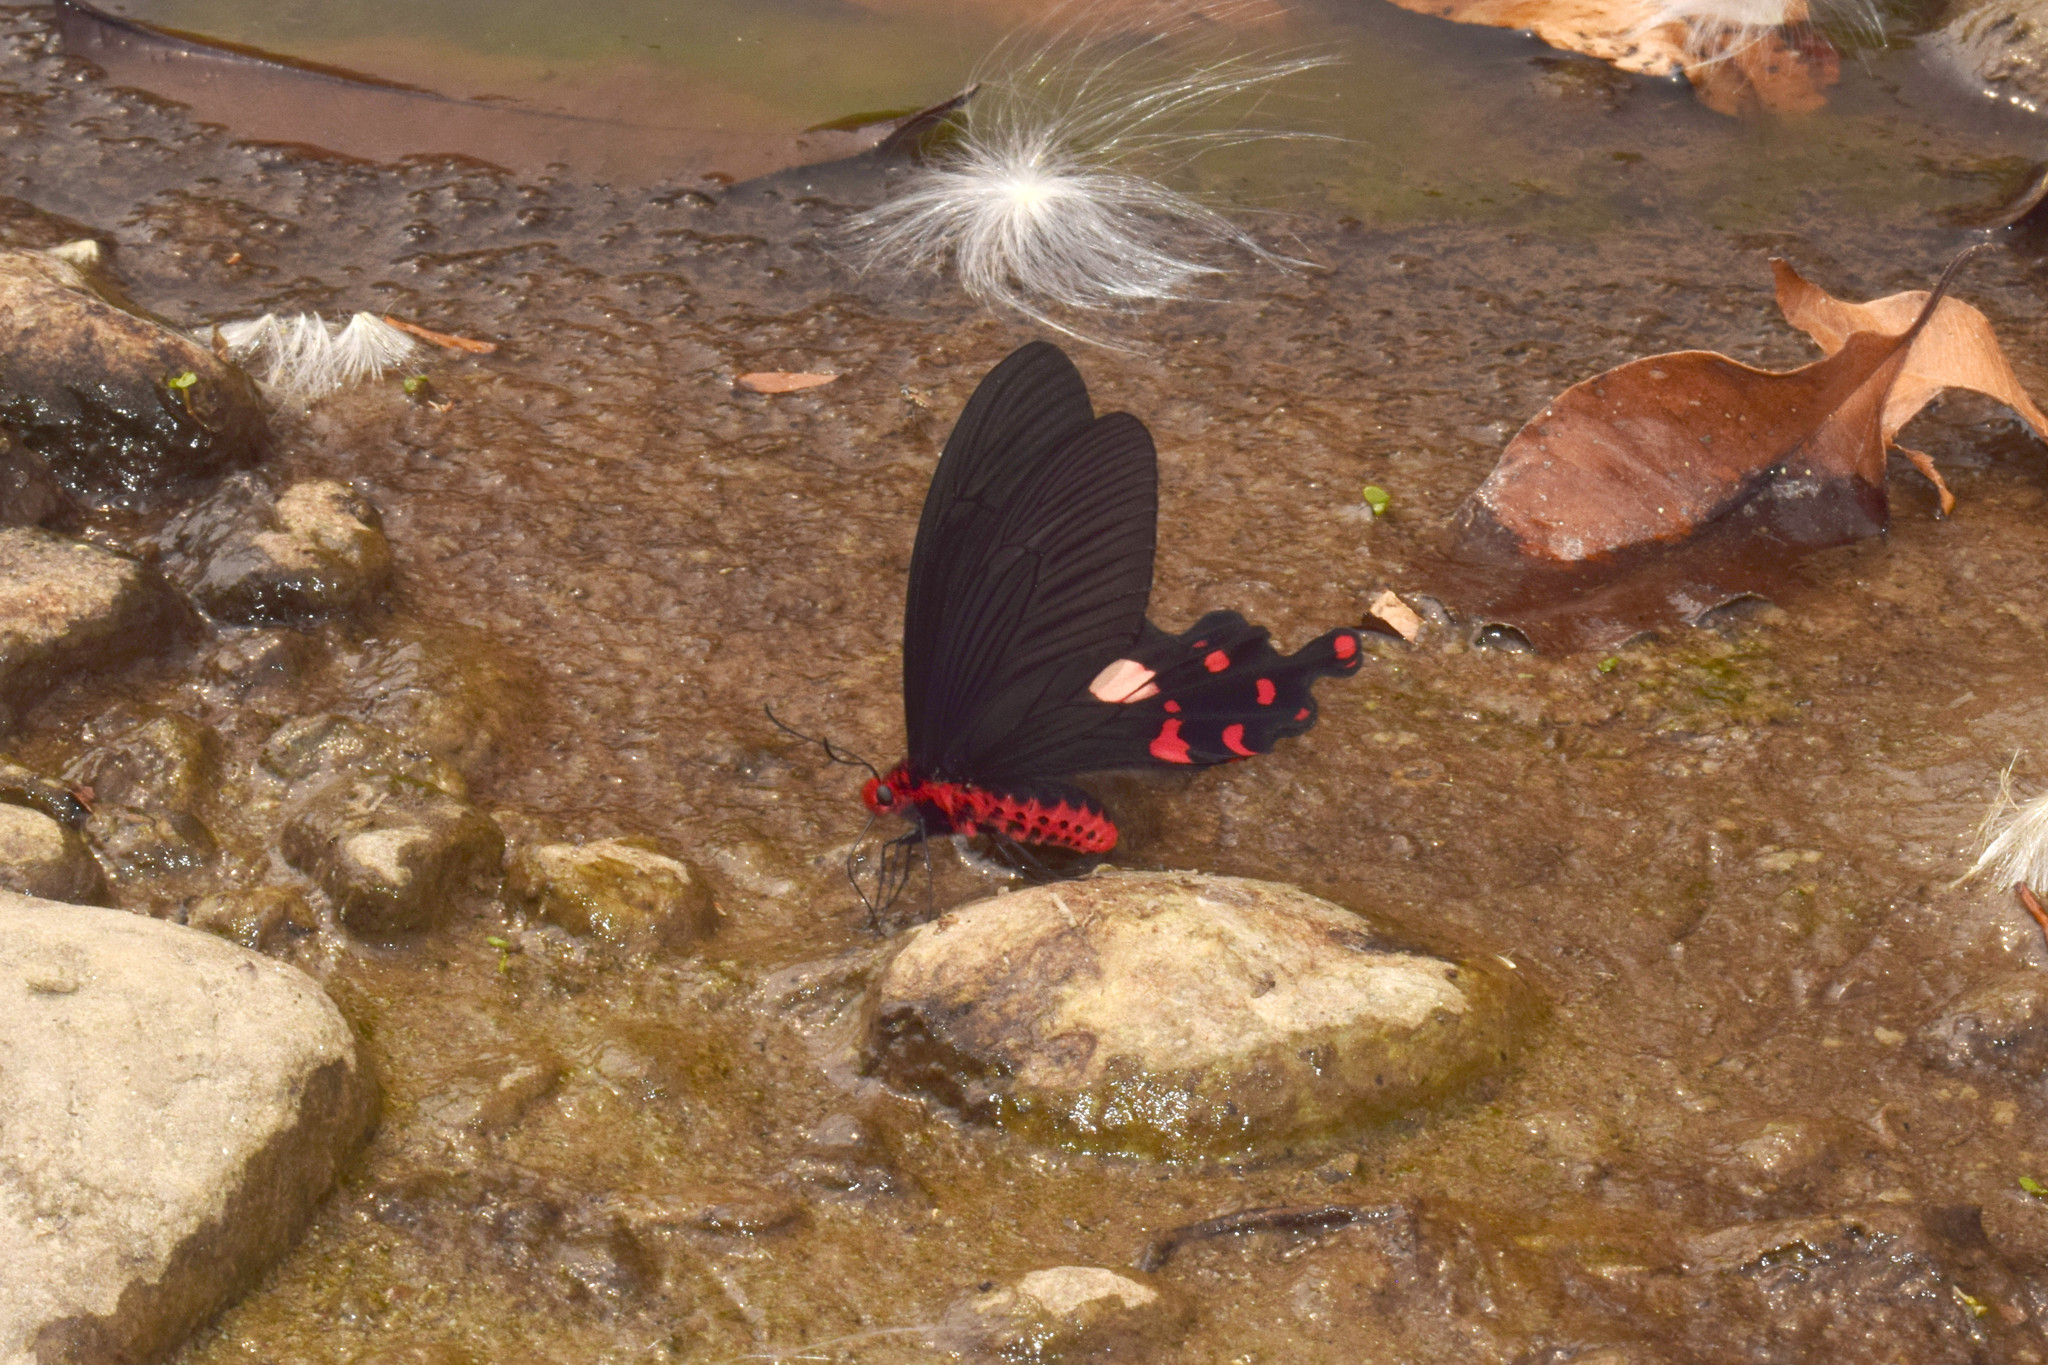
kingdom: Animalia
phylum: Arthropoda
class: Insecta
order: Lepidoptera
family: Papilionidae
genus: Byasa
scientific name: Byasa polyeuctes
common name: Common windmill
